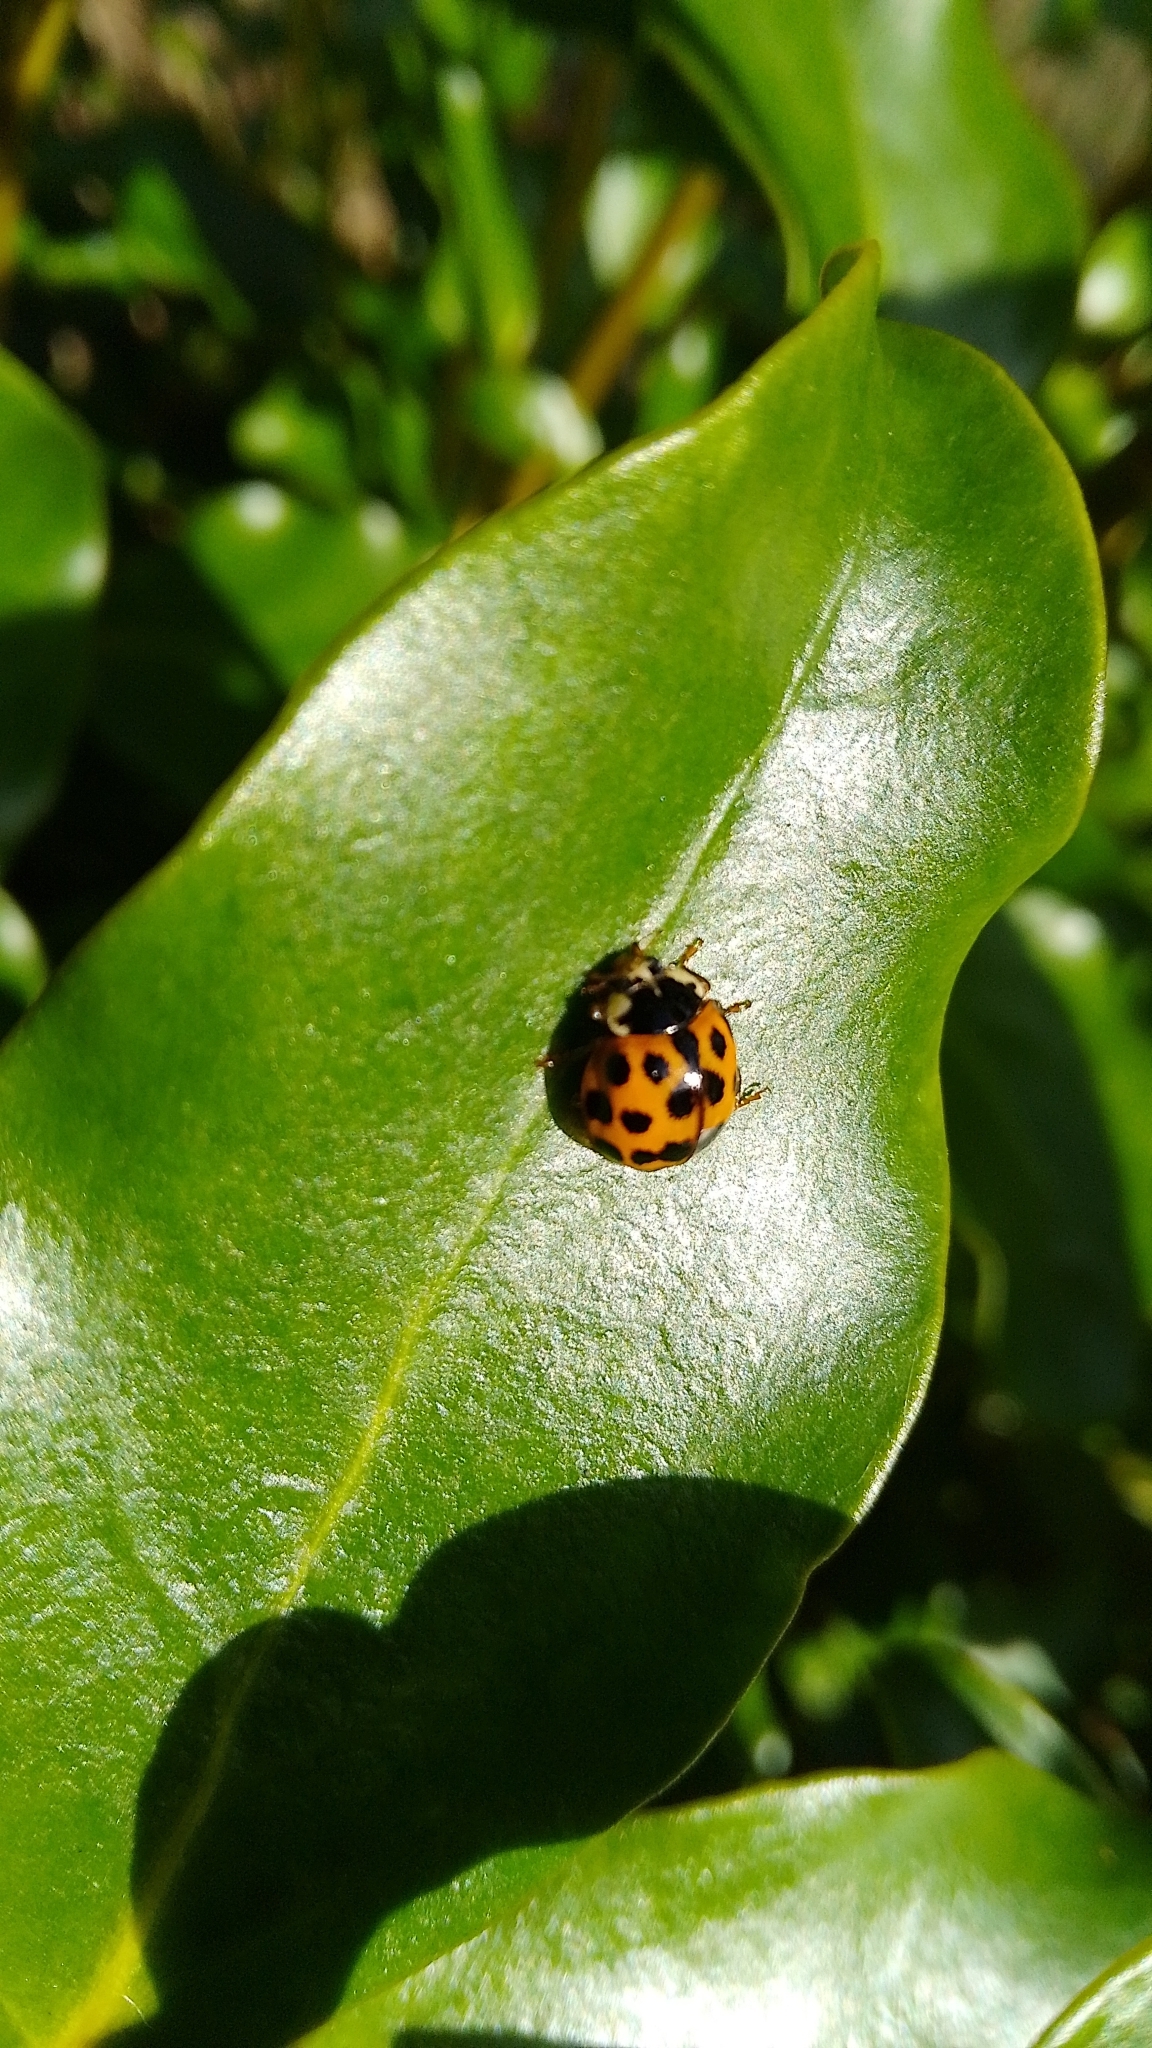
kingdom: Animalia
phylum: Arthropoda
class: Insecta
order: Coleoptera
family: Coccinellidae
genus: Harmonia
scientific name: Harmonia axyridis
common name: Harlequin ladybird
